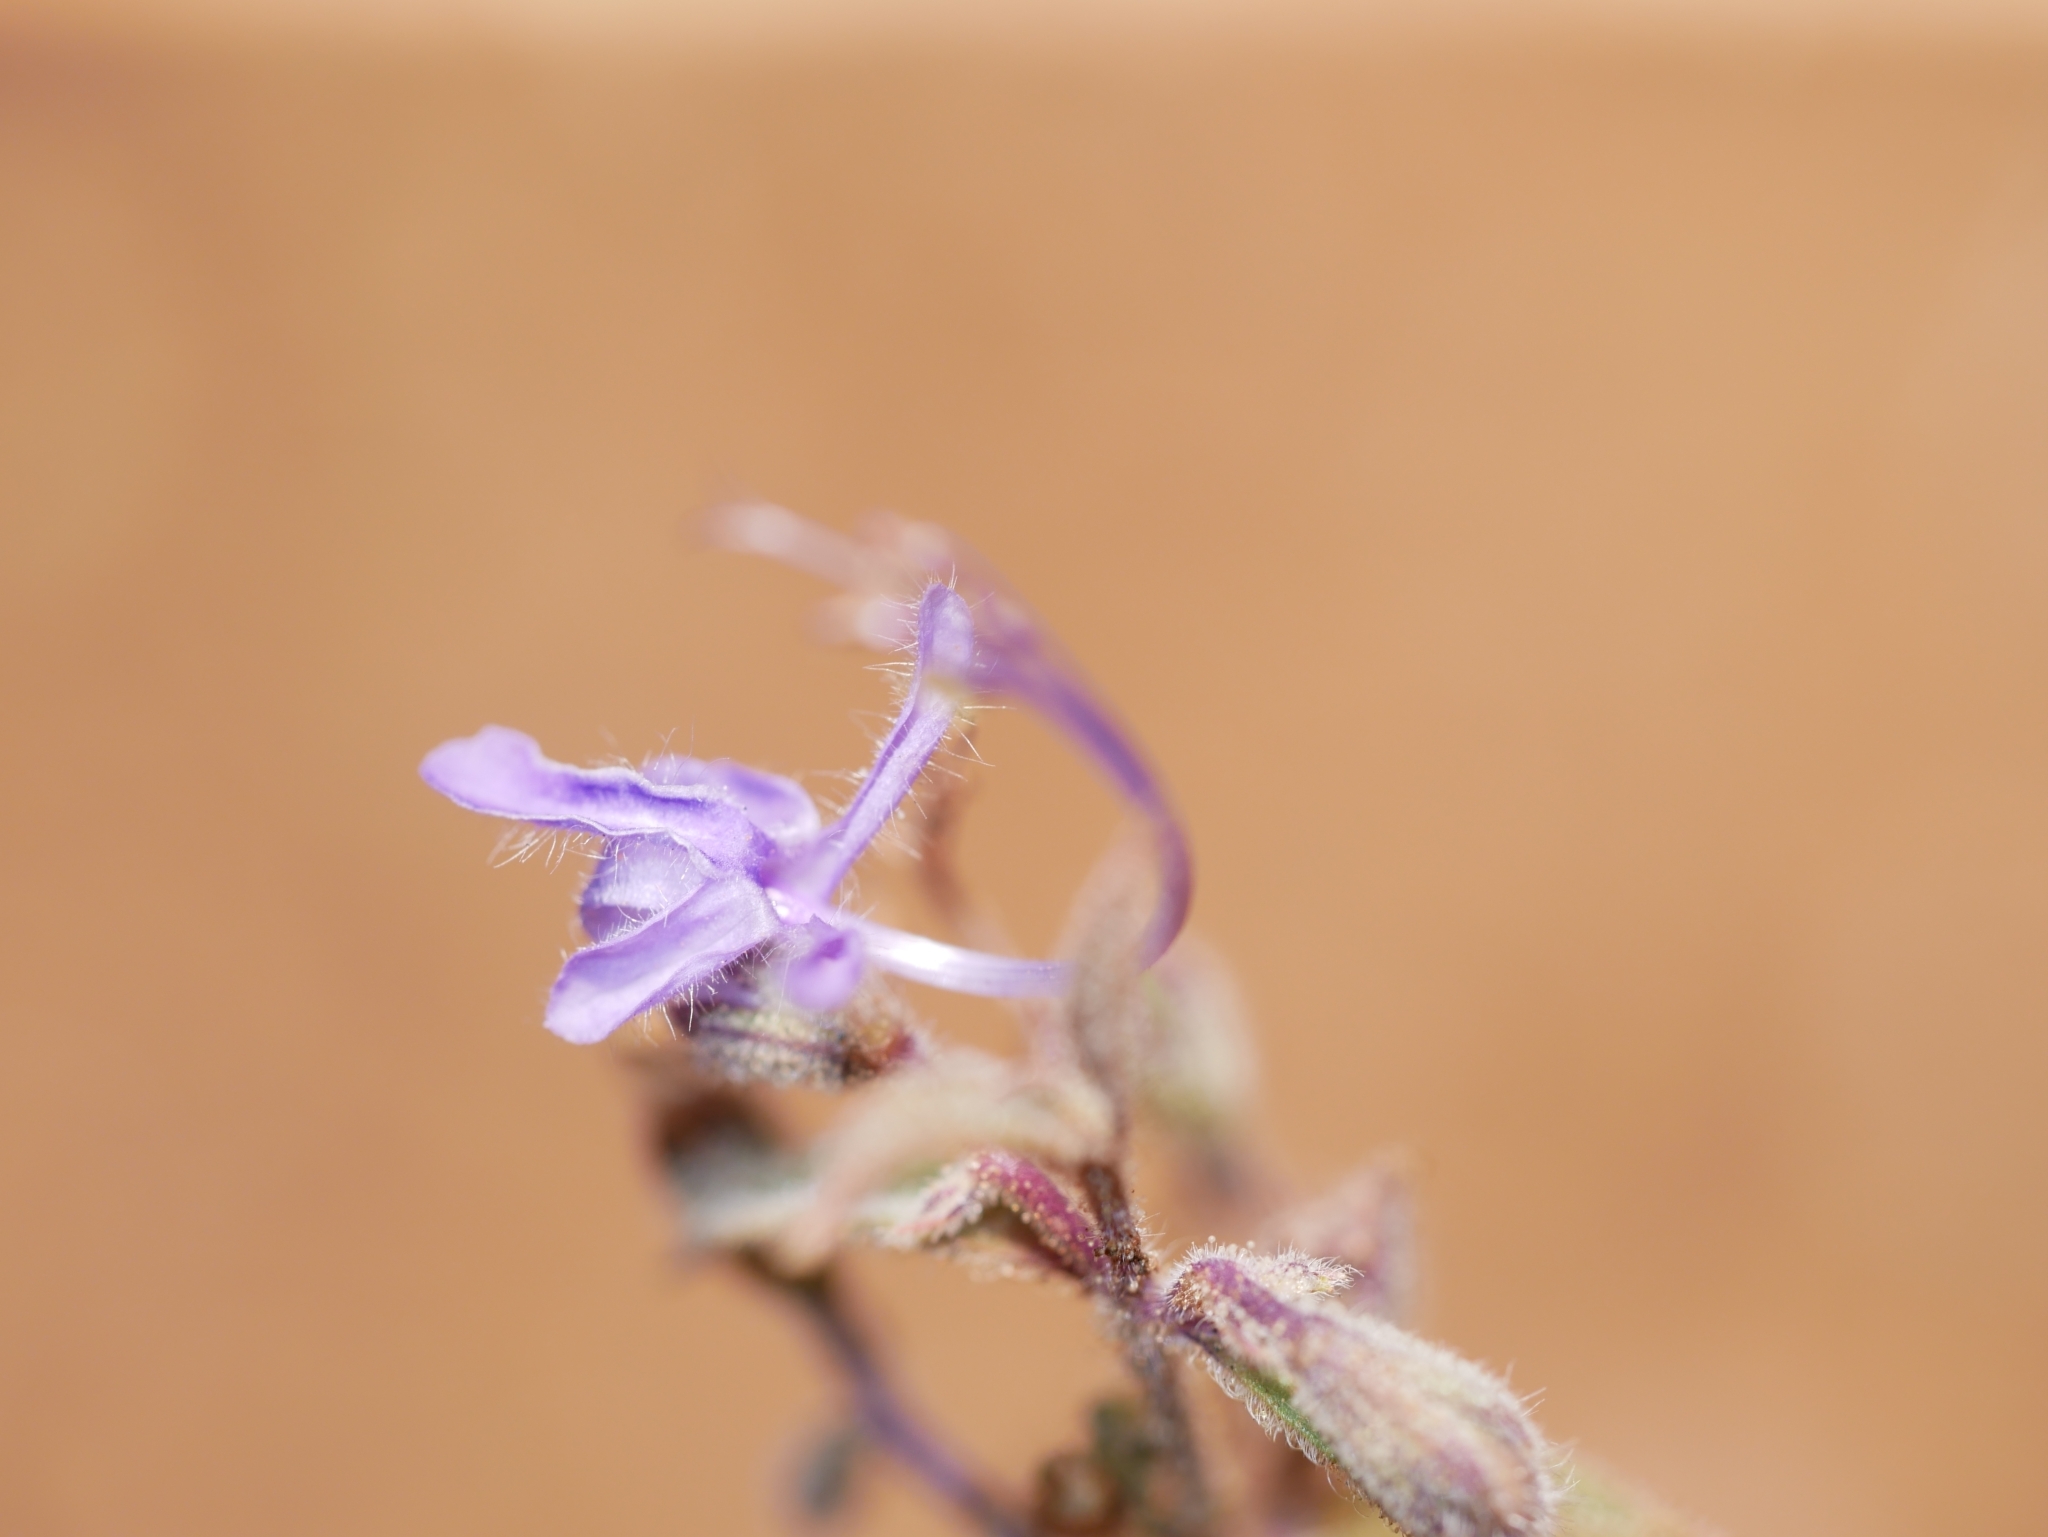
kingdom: Plantae
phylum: Tracheophyta
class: Magnoliopsida
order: Lamiales
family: Lamiaceae
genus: Trichostema
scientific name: Trichostema lanceolatum
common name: Vinegar-weed
